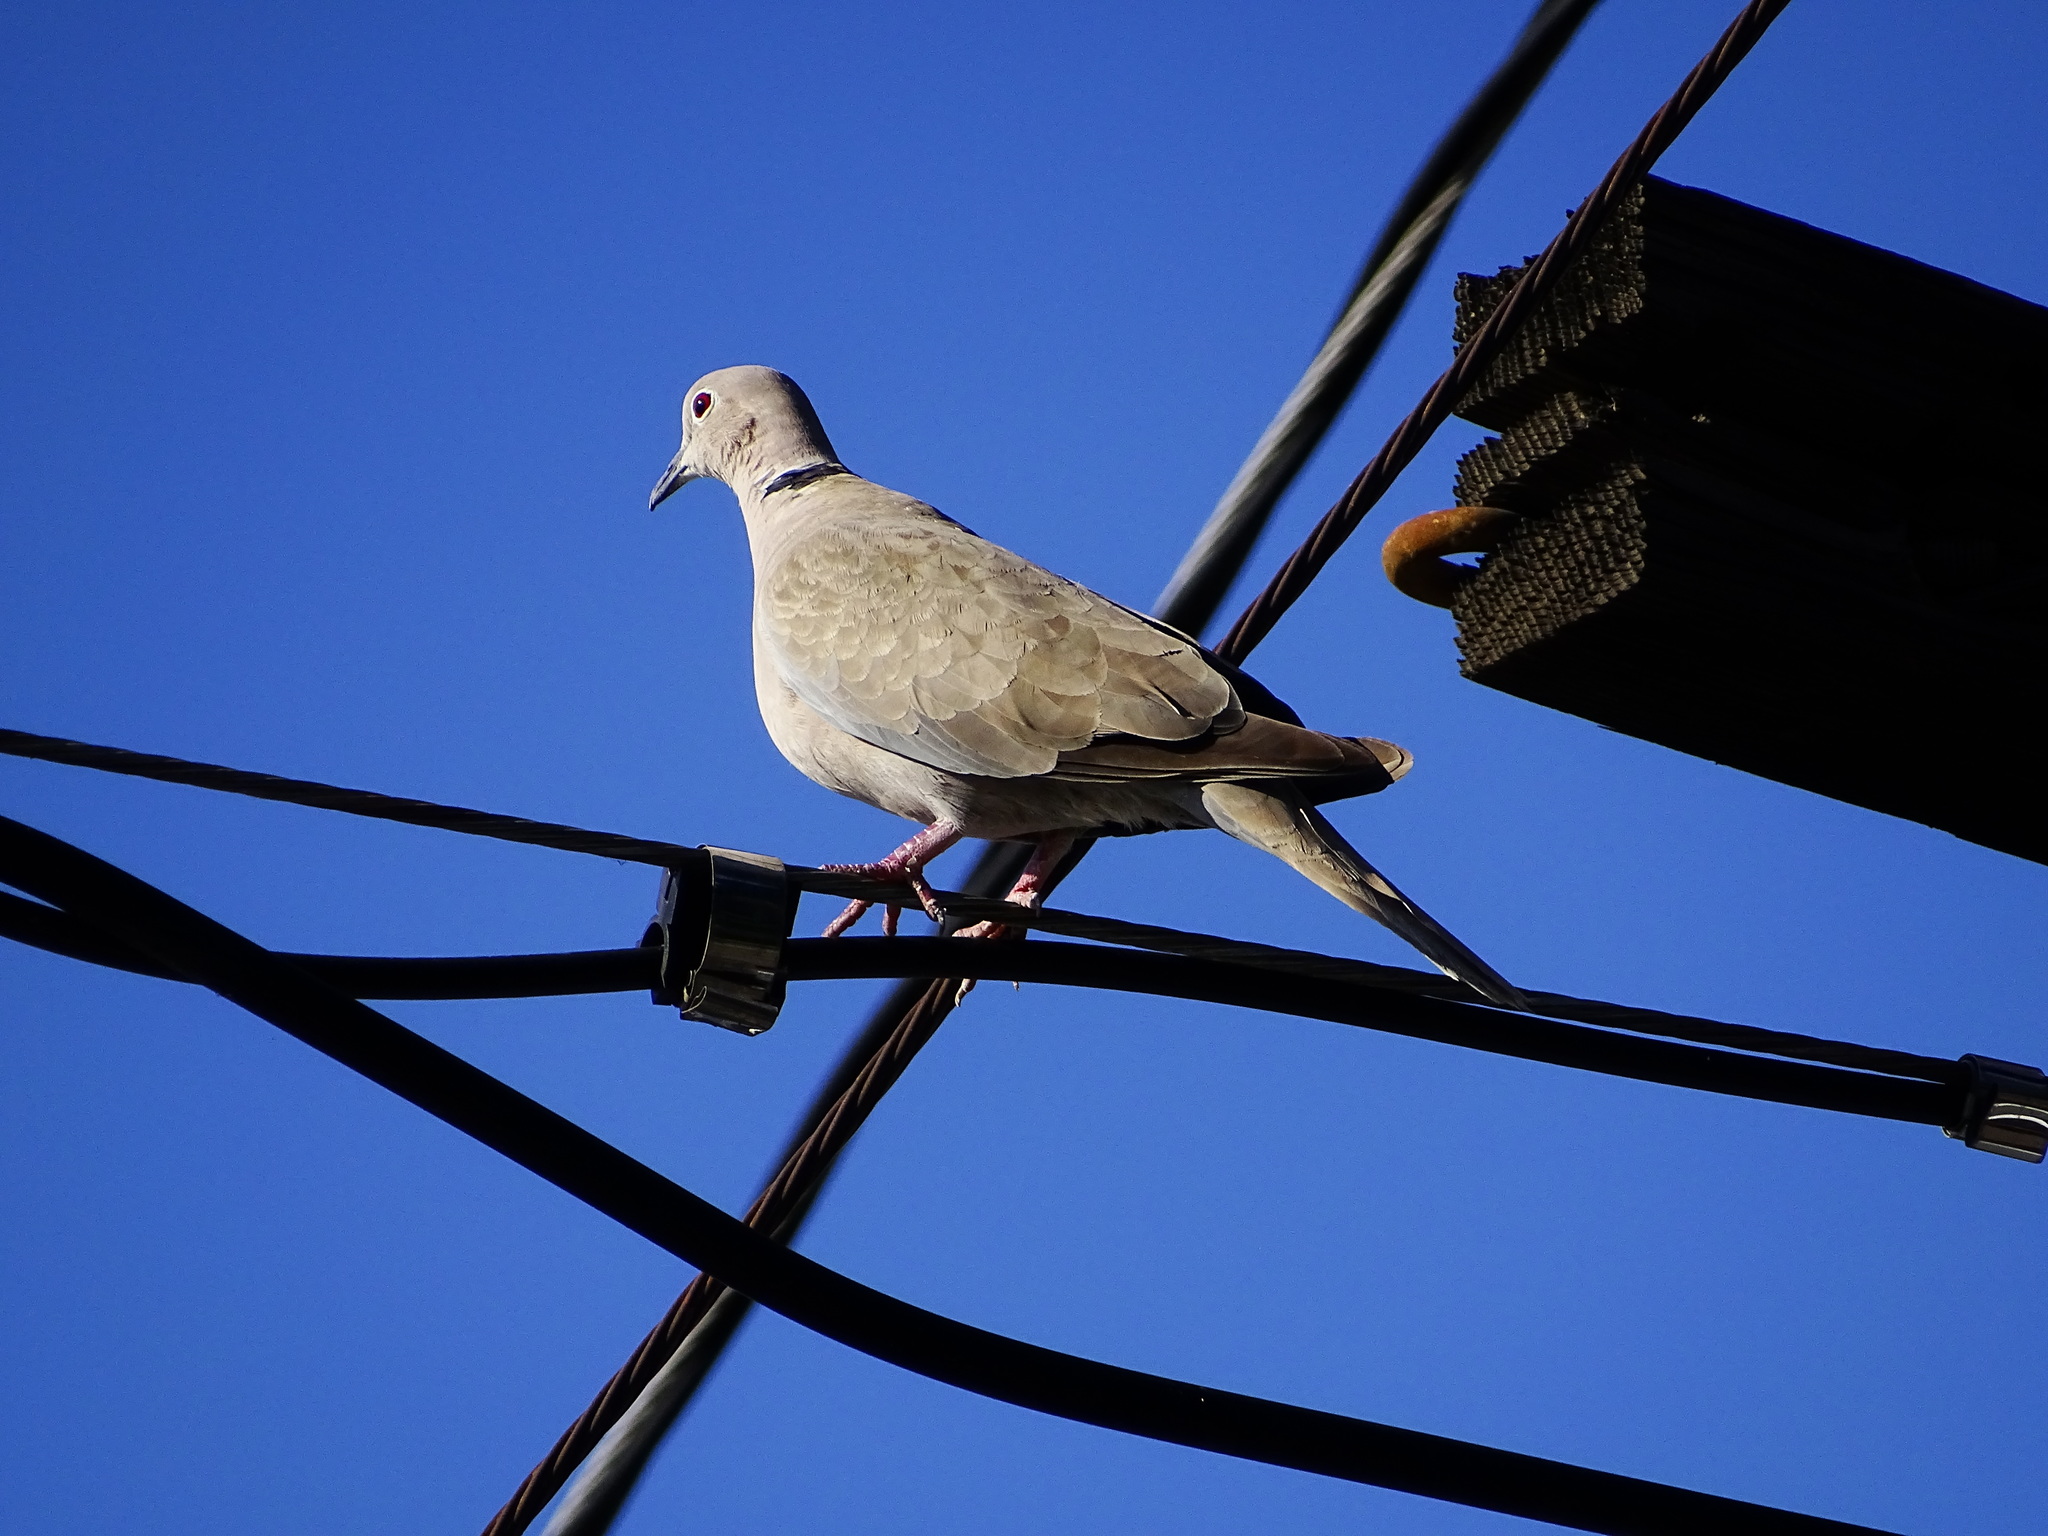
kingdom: Animalia
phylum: Chordata
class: Aves
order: Columbiformes
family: Columbidae
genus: Streptopelia
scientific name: Streptopelia decaocto
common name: Eurasian collared dove
